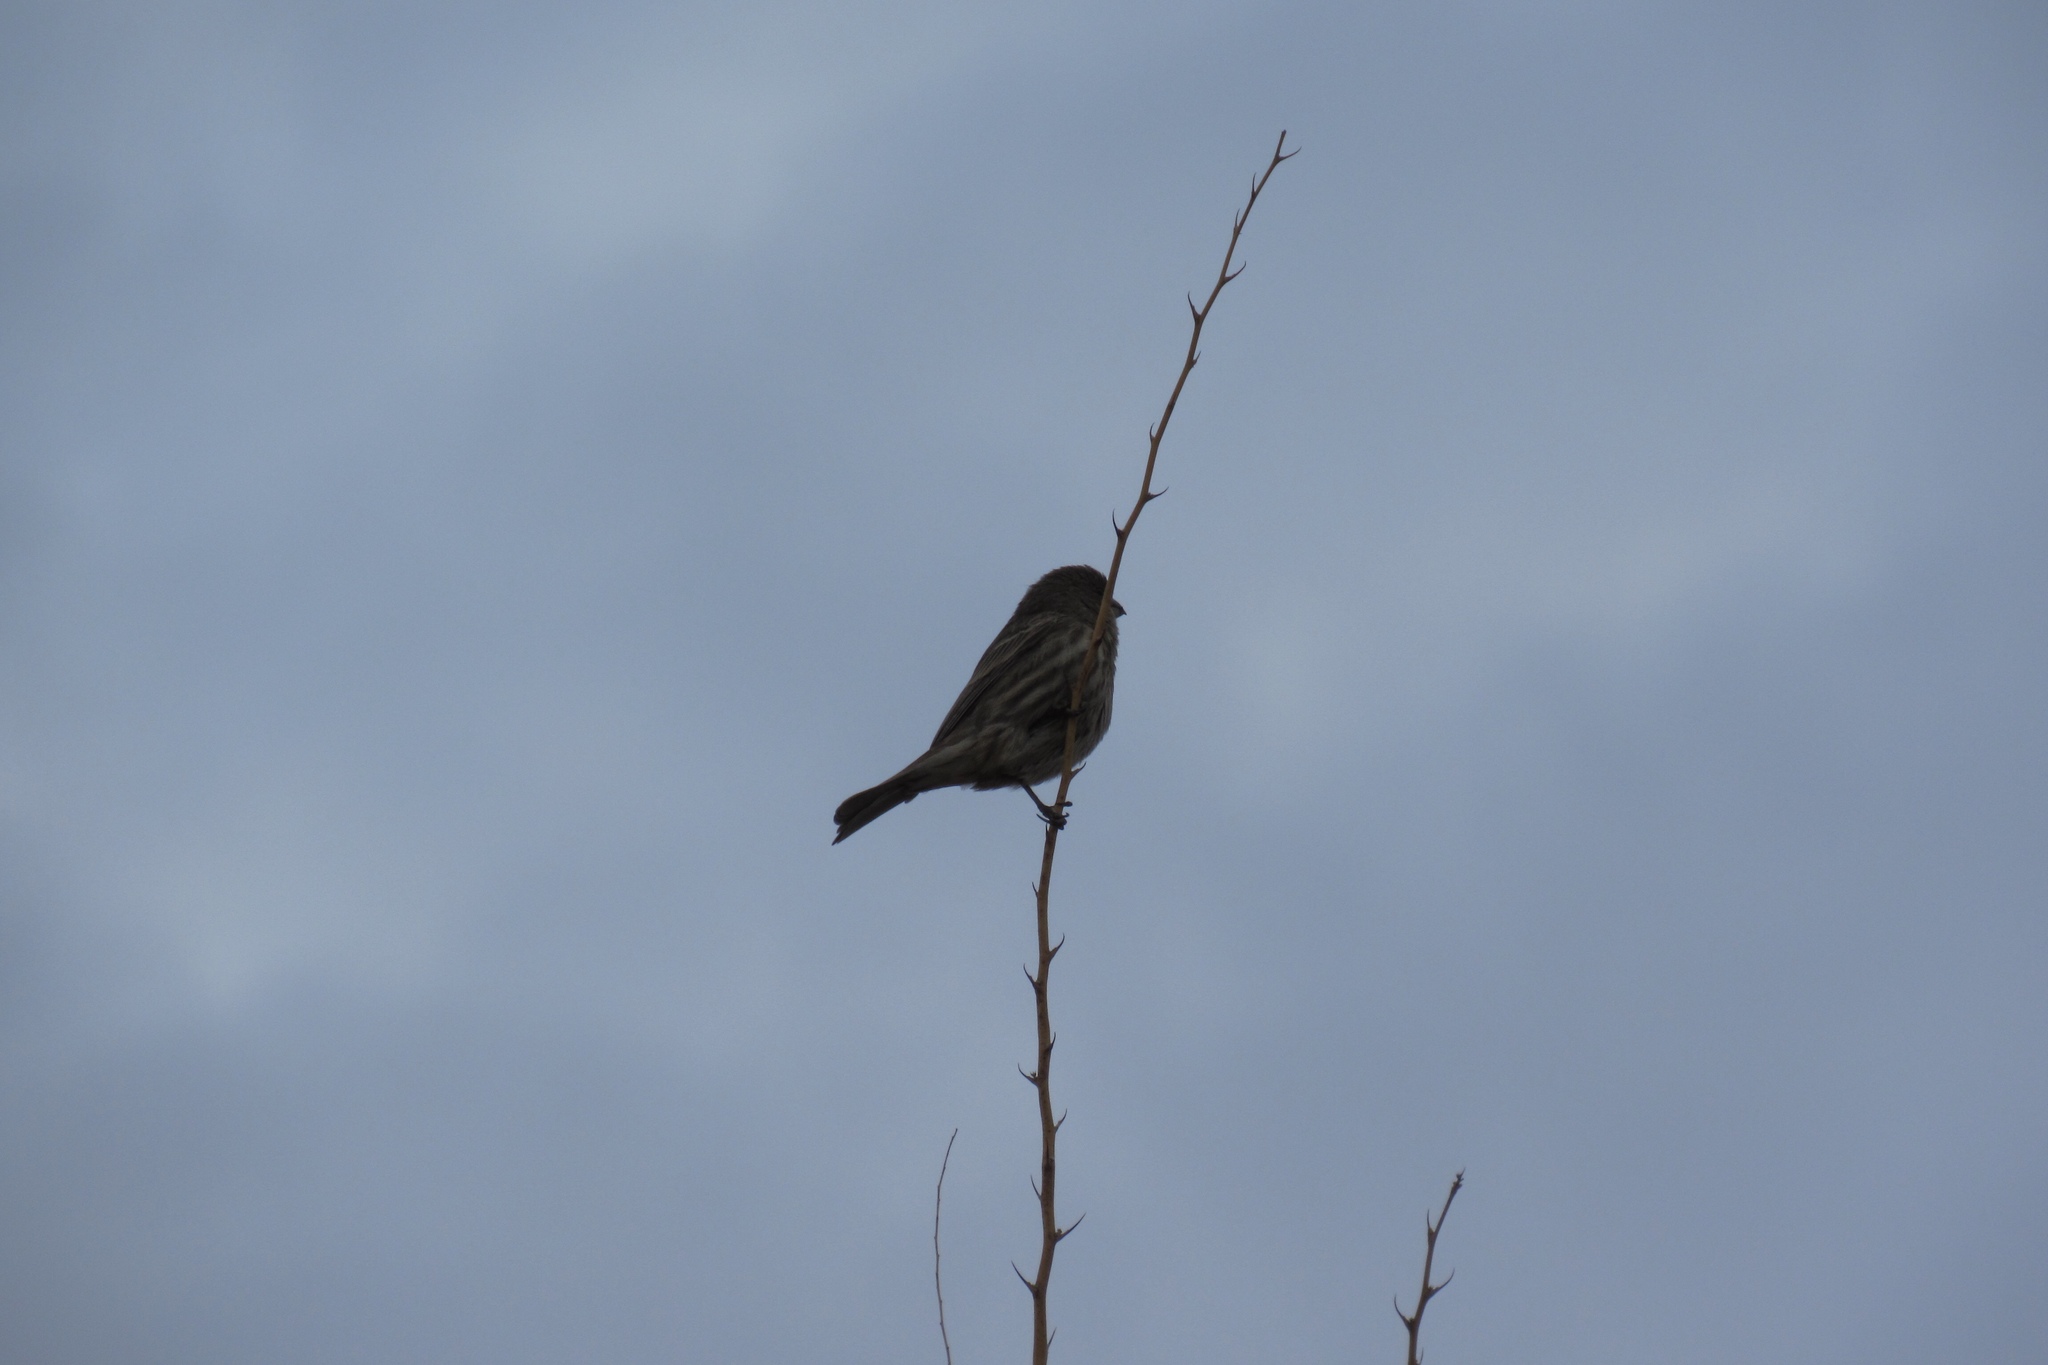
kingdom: Animalia
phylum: Chordata
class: Aves
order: Passeriformes
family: Fringillidae
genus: Haemorhous
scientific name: Haemorhous mexicanus
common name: House finch
